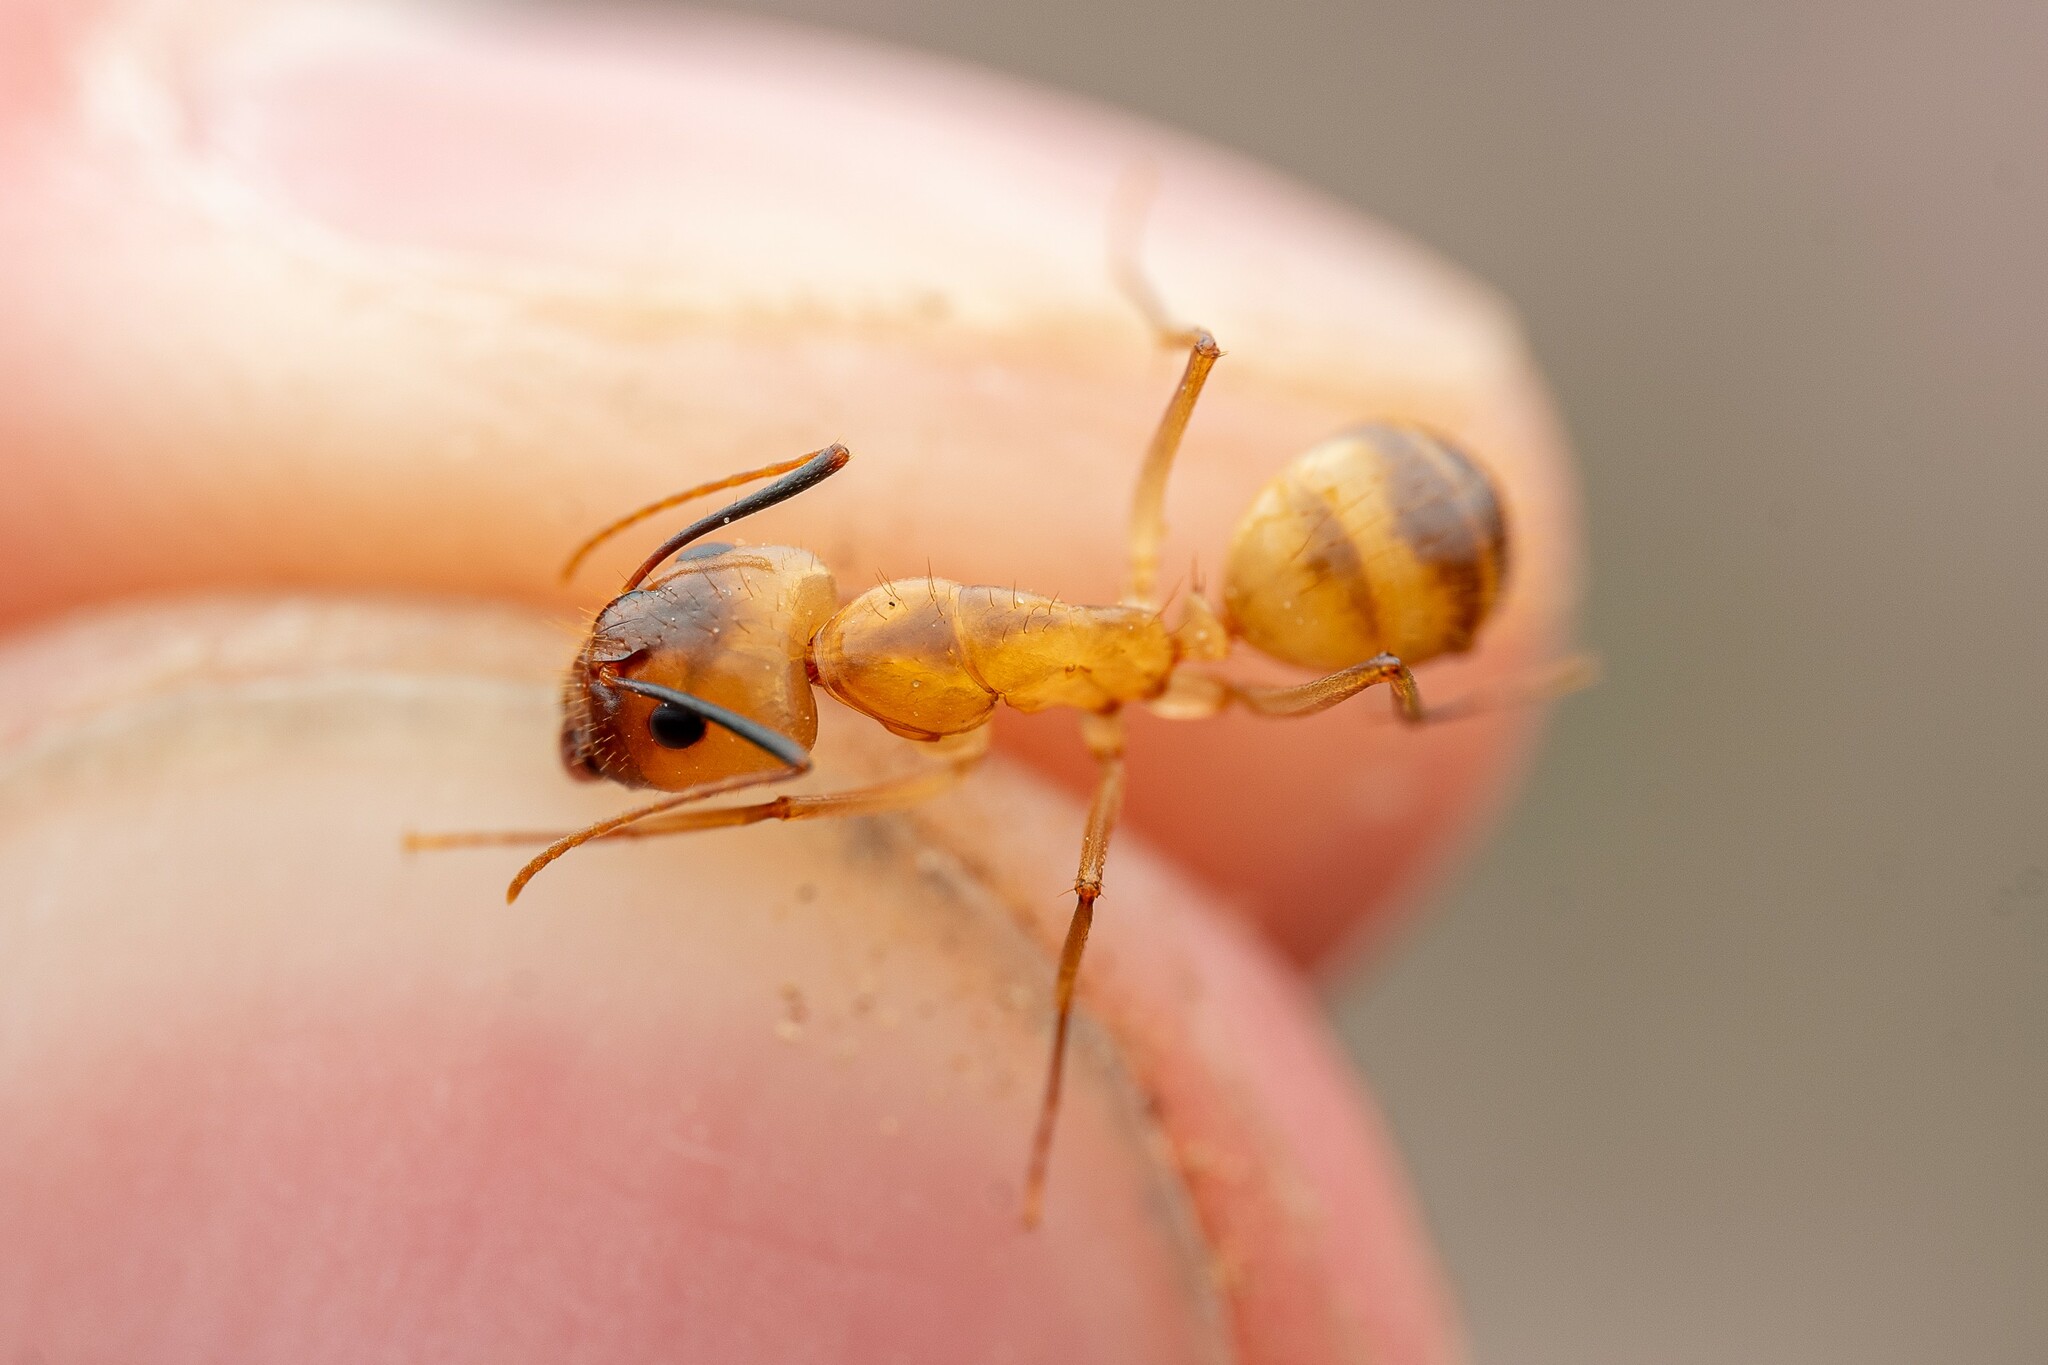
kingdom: Animalia
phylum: Arthropoda
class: Insecta
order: Hymenoptera
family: Formicidae
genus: Camponotus
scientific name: Camponotus fragilis
